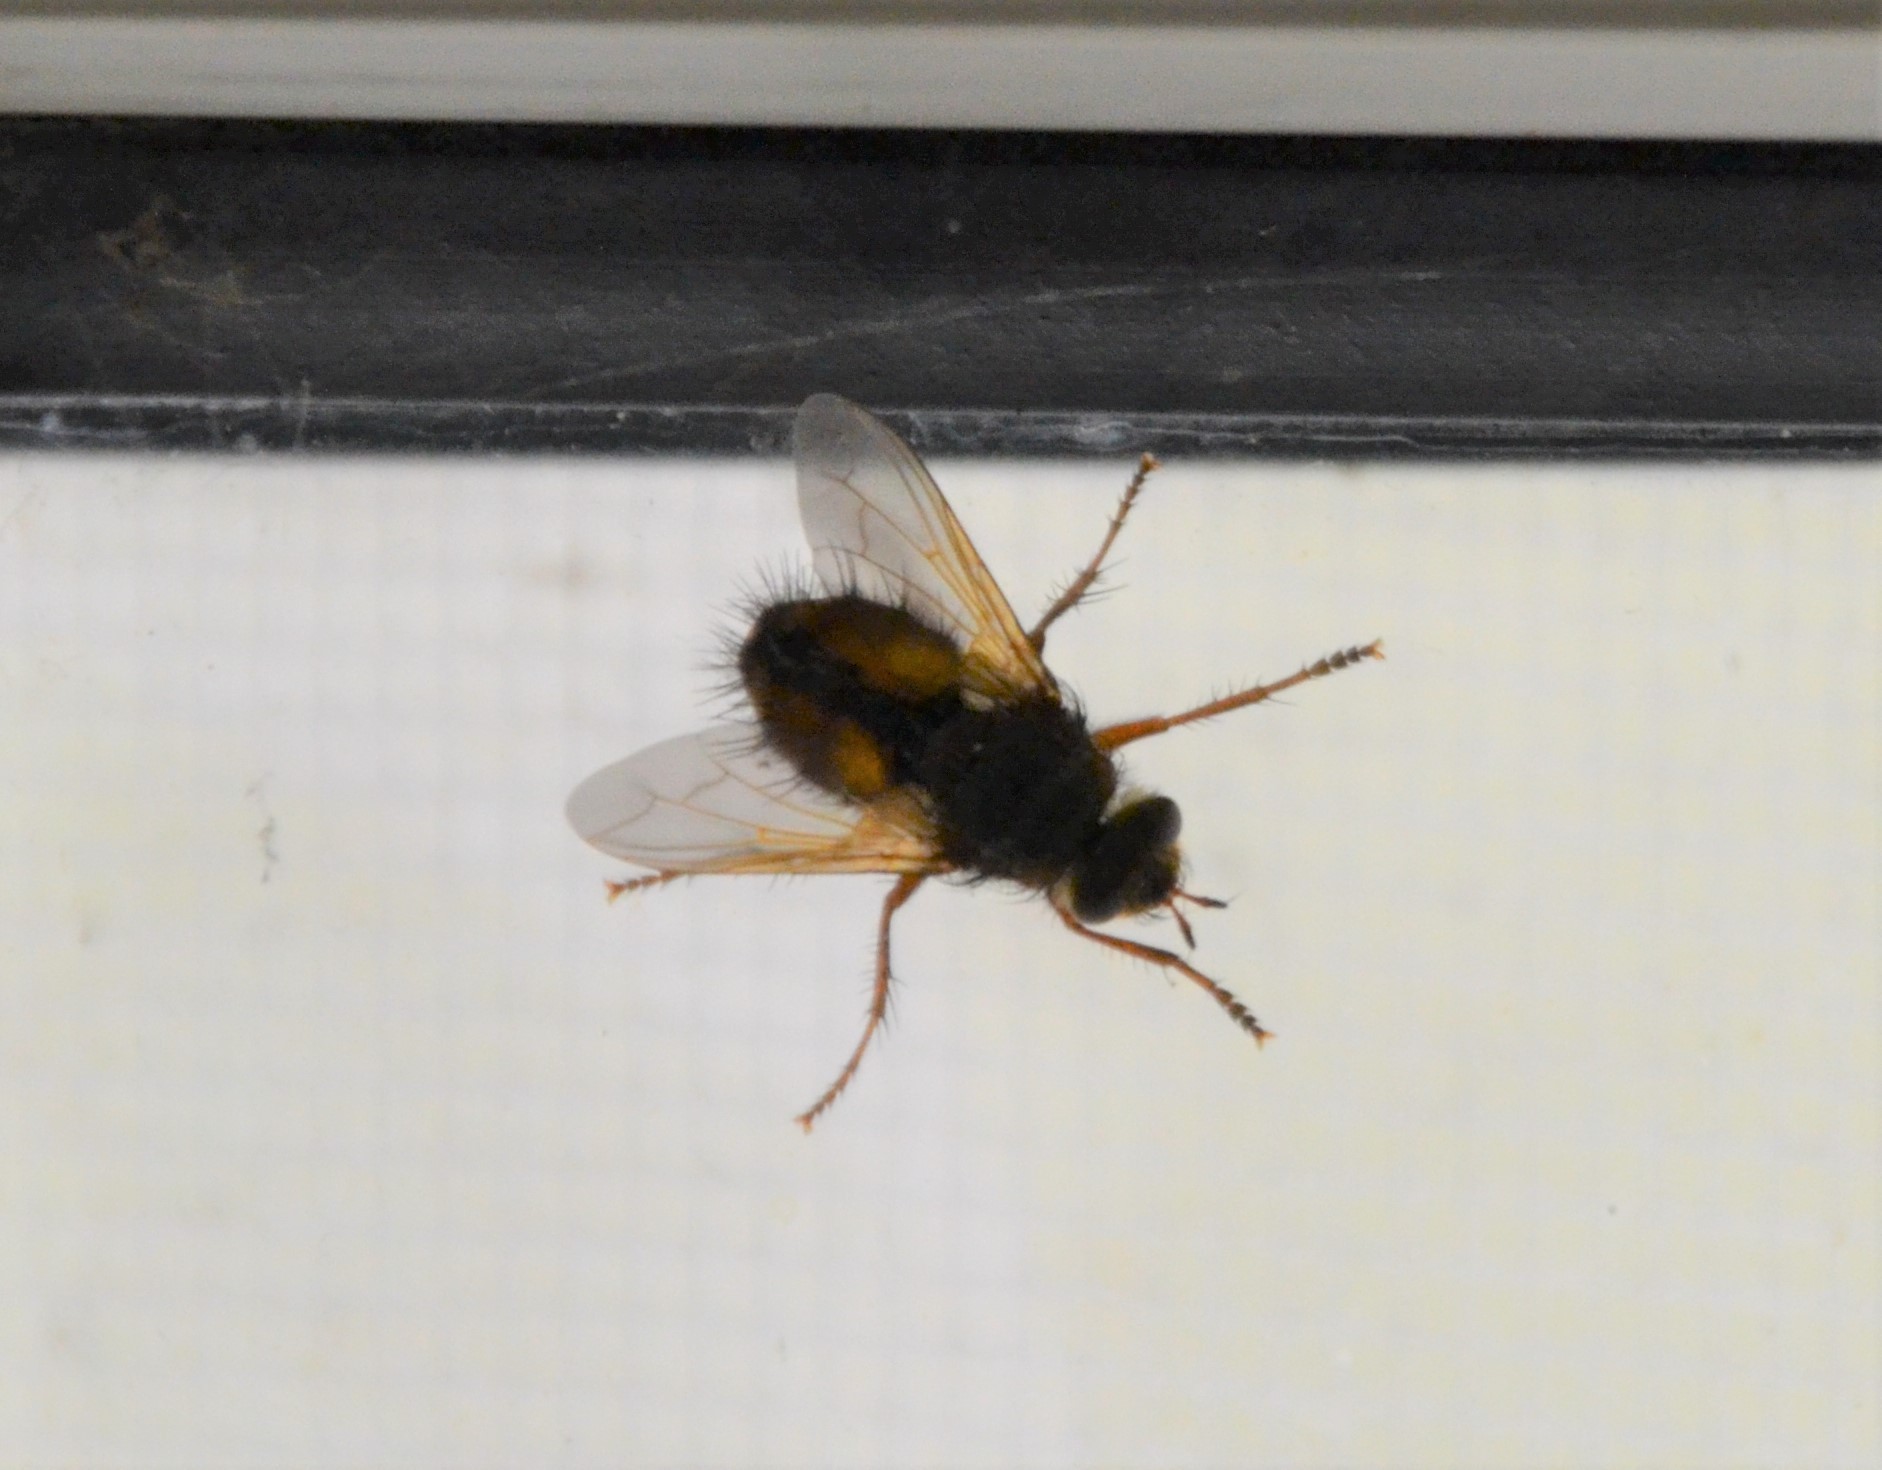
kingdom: Animalia
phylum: Arthropoda
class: Insecta
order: Diptera
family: Tachinidae
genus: Tachina
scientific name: Tachina fera
